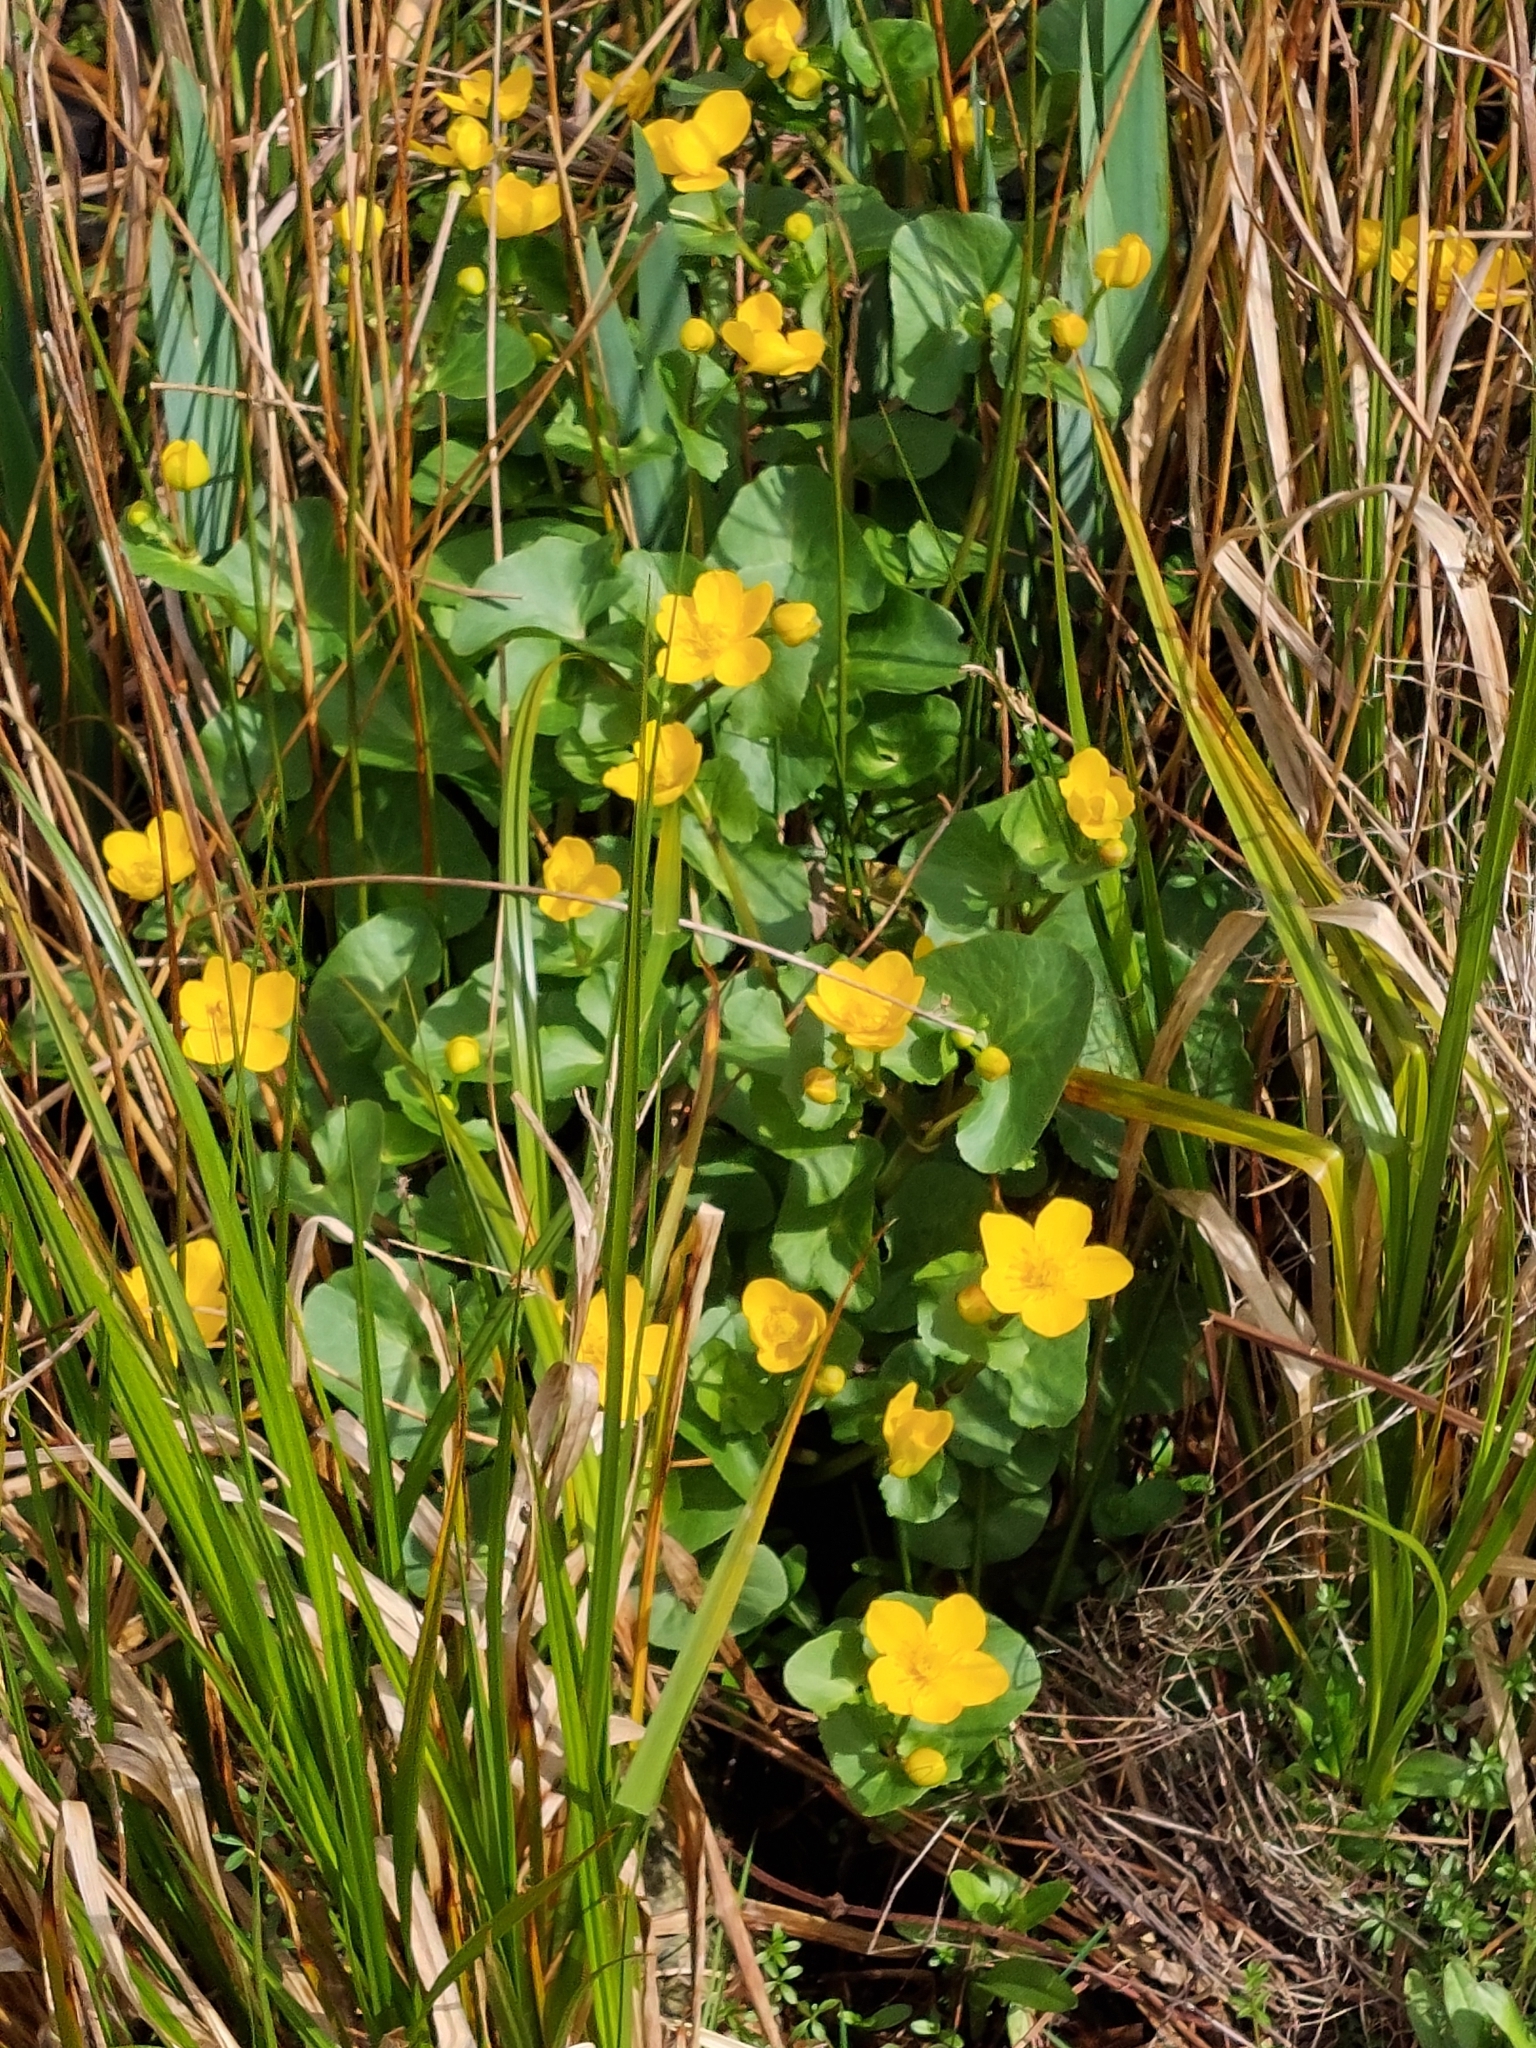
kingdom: Plantae
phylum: Tracheophyta
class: Magnoliopsida
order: Ranunculales
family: Ranunculaceae
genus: Caltha
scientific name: Caltha palustris
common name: Marsh marigold
